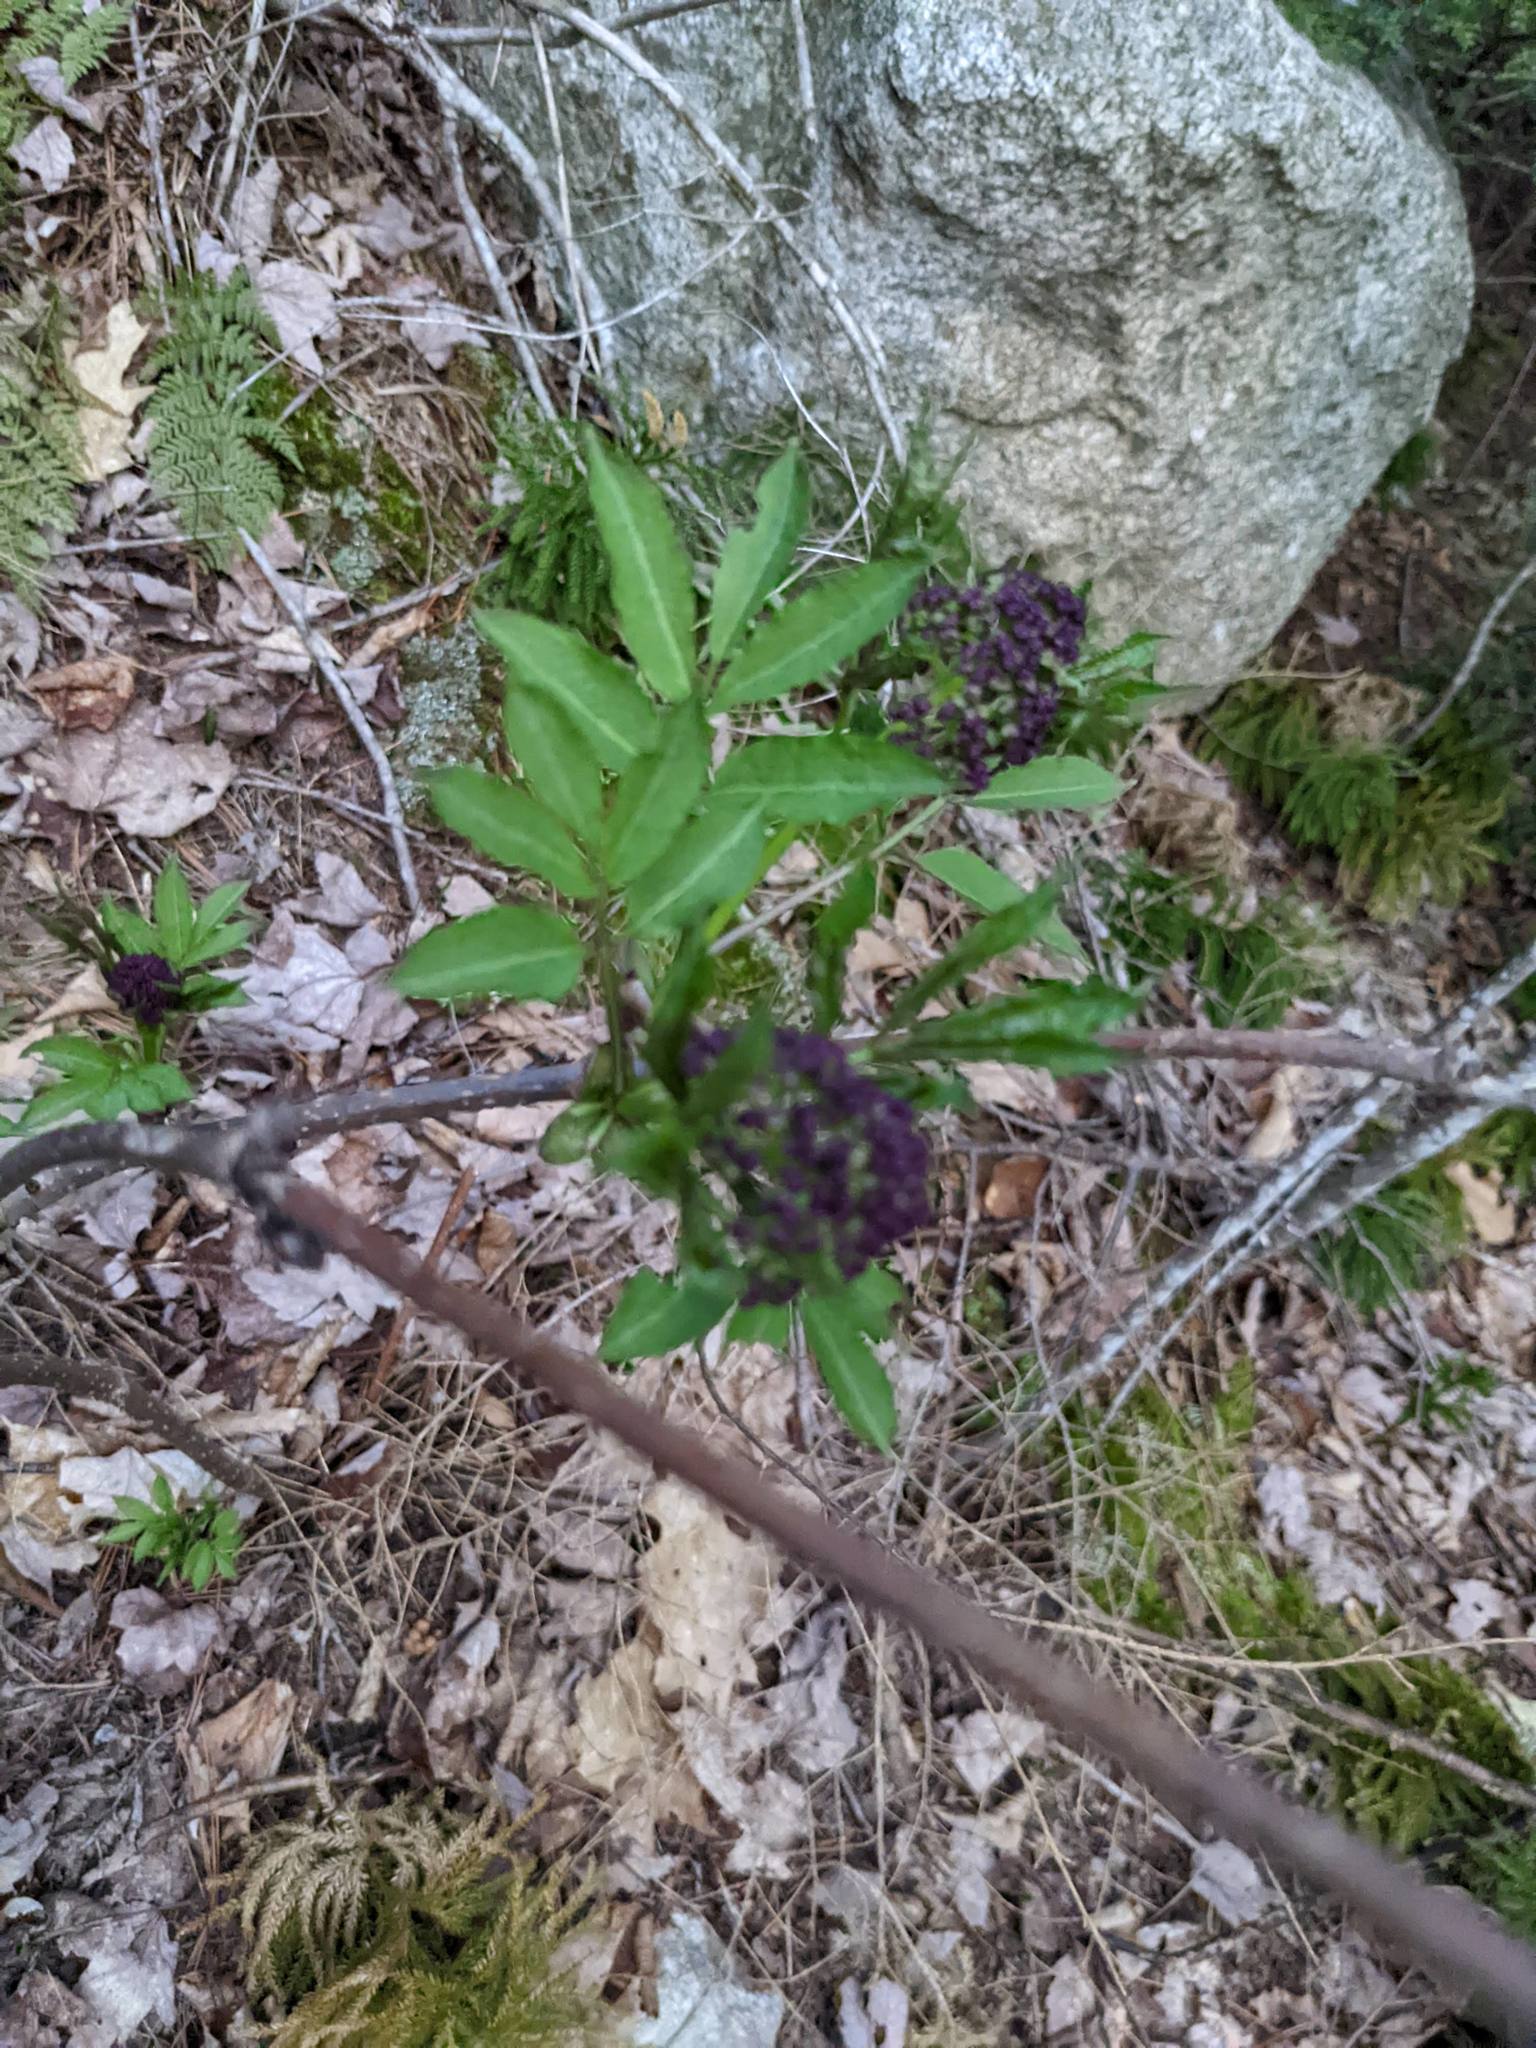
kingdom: Plantae
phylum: Tracheophyta
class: Magnoliopsida
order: Dipsacales
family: Viburnaceae
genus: Sambucus
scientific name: Sambucus racemosa
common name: Red-berried elder
